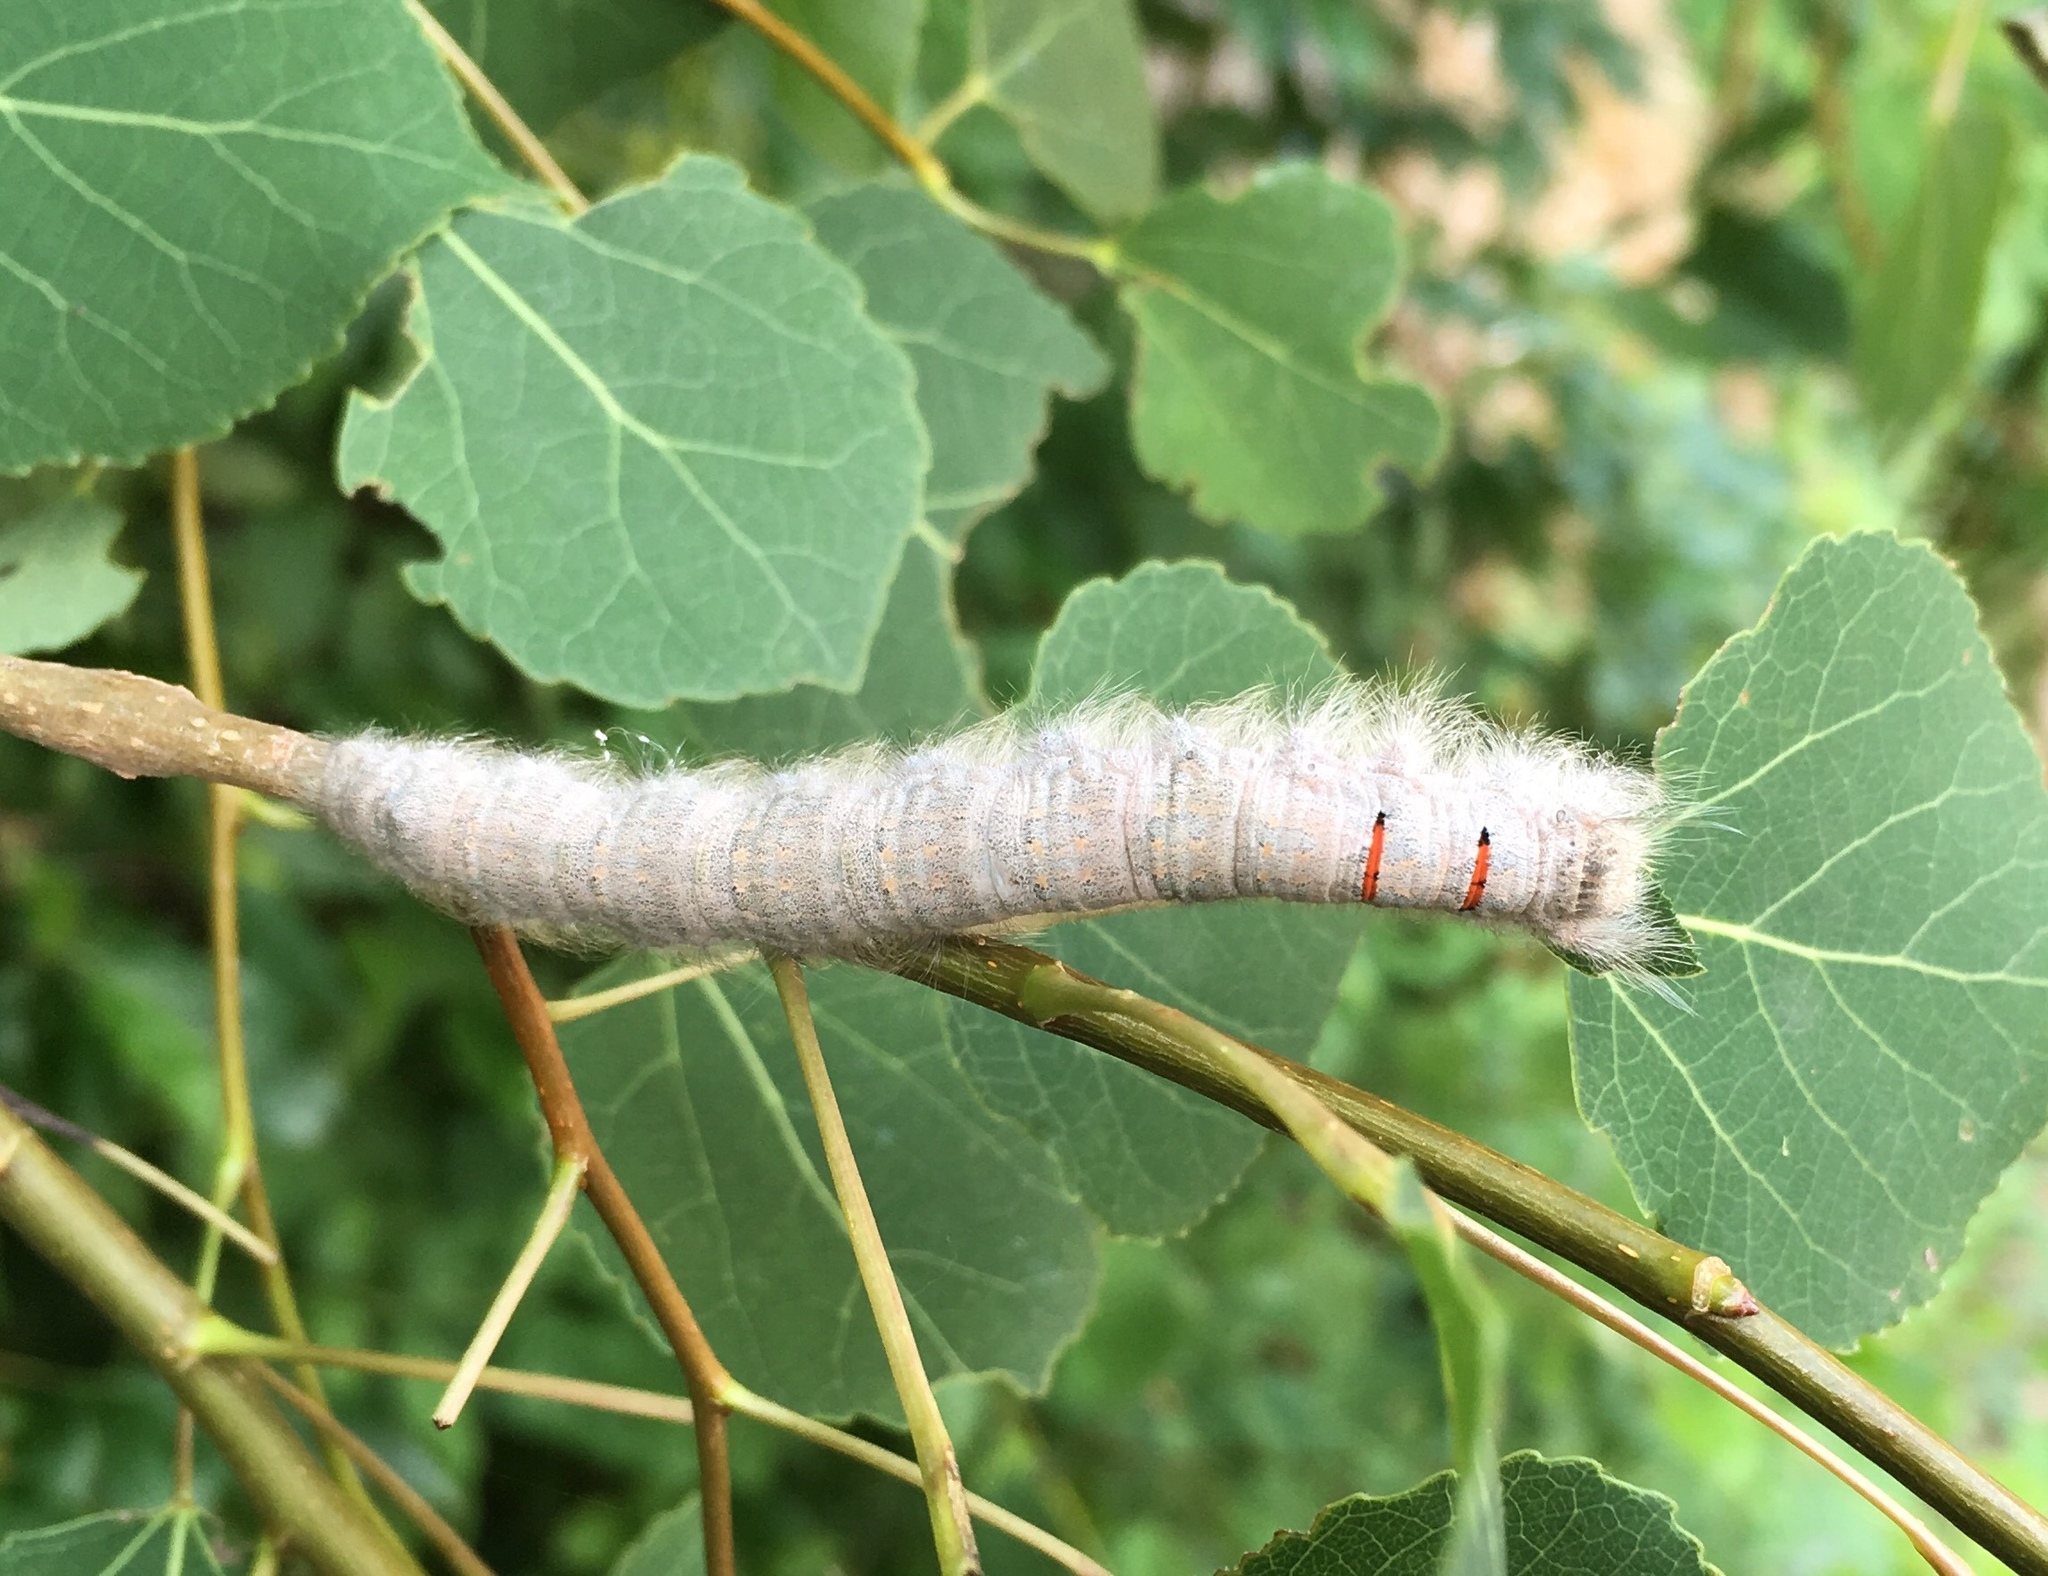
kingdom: Animalia
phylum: Arthropoda
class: Insecta
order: Lepidoptera
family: Lasiocampidae
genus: Phyllodesma
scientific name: Phyllodesma americana
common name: American lappet moth
